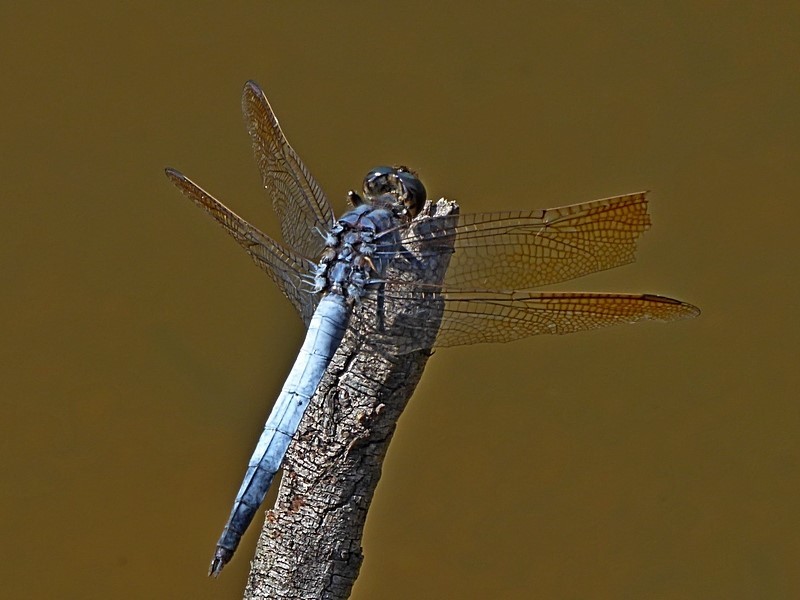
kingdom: Animalia
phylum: Arthropoda
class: Insecta
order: Odonata
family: Libellulidae
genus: Orthetrum
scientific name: Orthetrum caledonicum
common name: Blue skimmer
